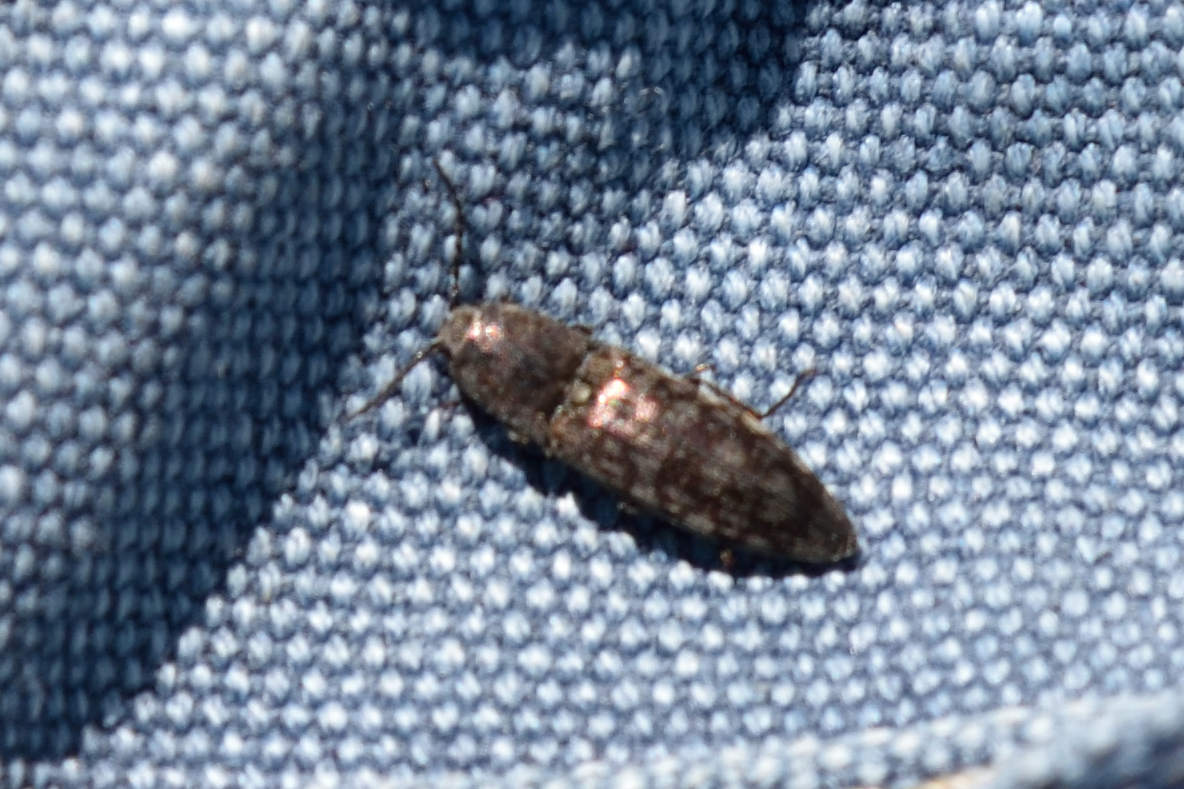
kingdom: Animalia
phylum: Arthropoda
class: Insecta
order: Coleoptera
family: Elateridae
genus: Actenicerus
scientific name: Actenicerus sjaelandicus
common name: Marsh click beetle
